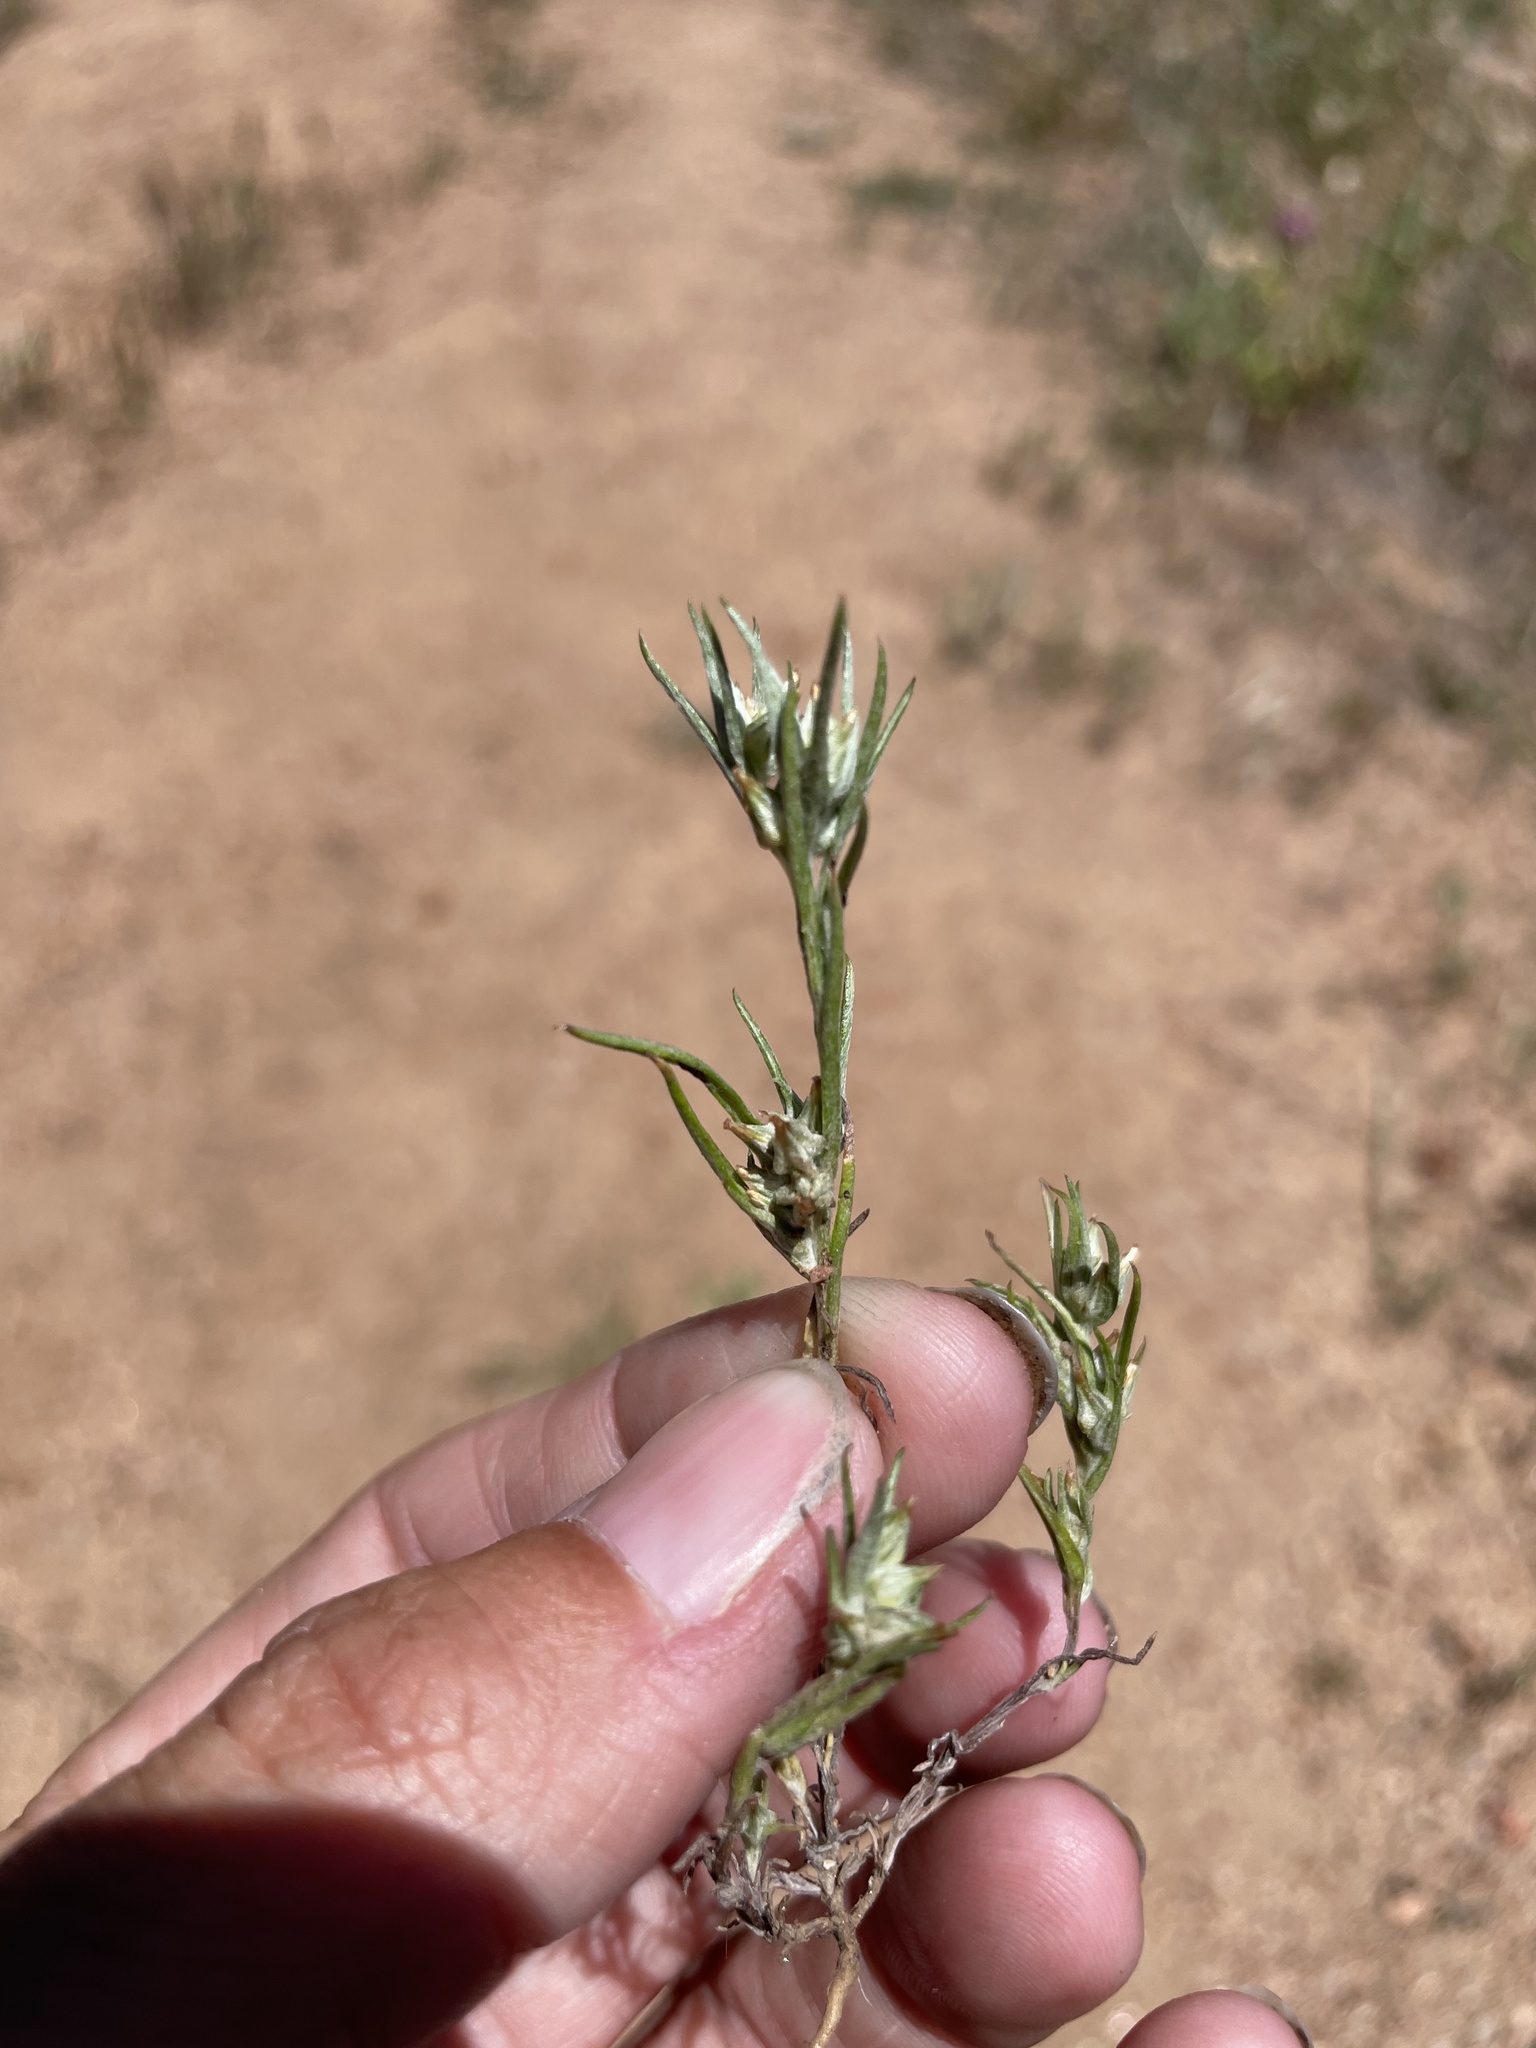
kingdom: Plantae
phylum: Tracheophyta
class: Magnoliopsida
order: Asterales
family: Asteraceae
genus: Logfia
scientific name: Logfia gallica
